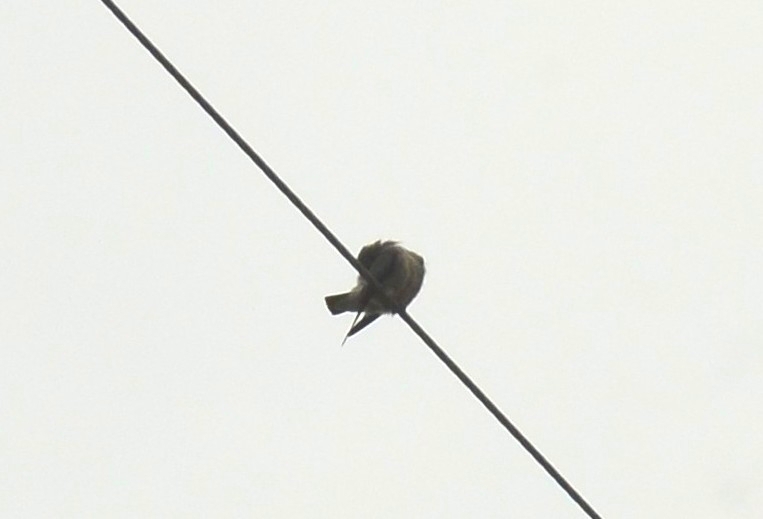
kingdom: Animalia
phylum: Chordata
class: Aves
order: Passeriformes
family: Artamidae
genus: Artamus
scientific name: Artamus fuscus
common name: Ashy woodswallow
